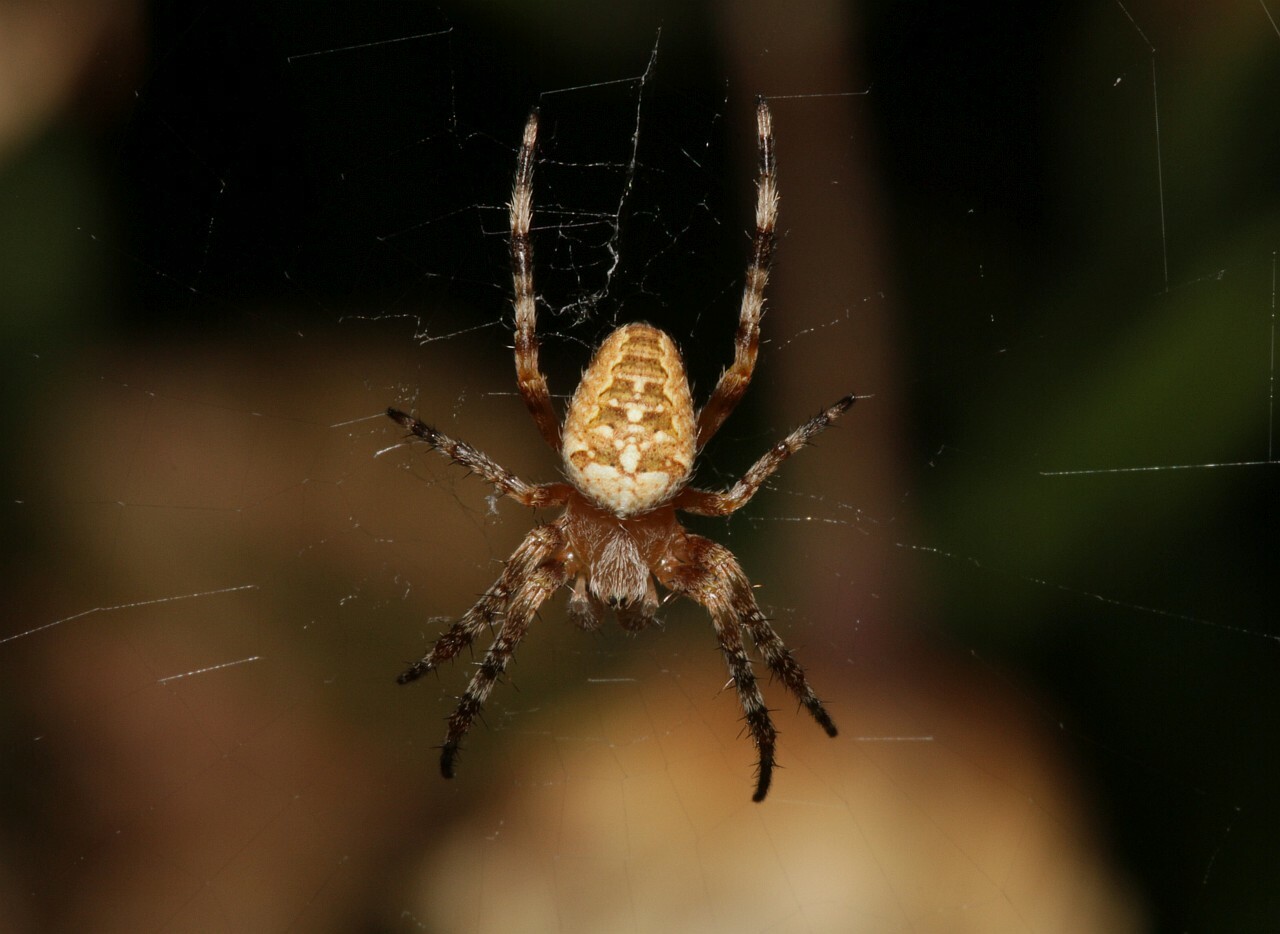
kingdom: Animalia
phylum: Arthropoda
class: Arachnida
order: Araneae
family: Araneidae
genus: Araneus
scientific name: Araneus diadematus
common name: Cross orbweaver
